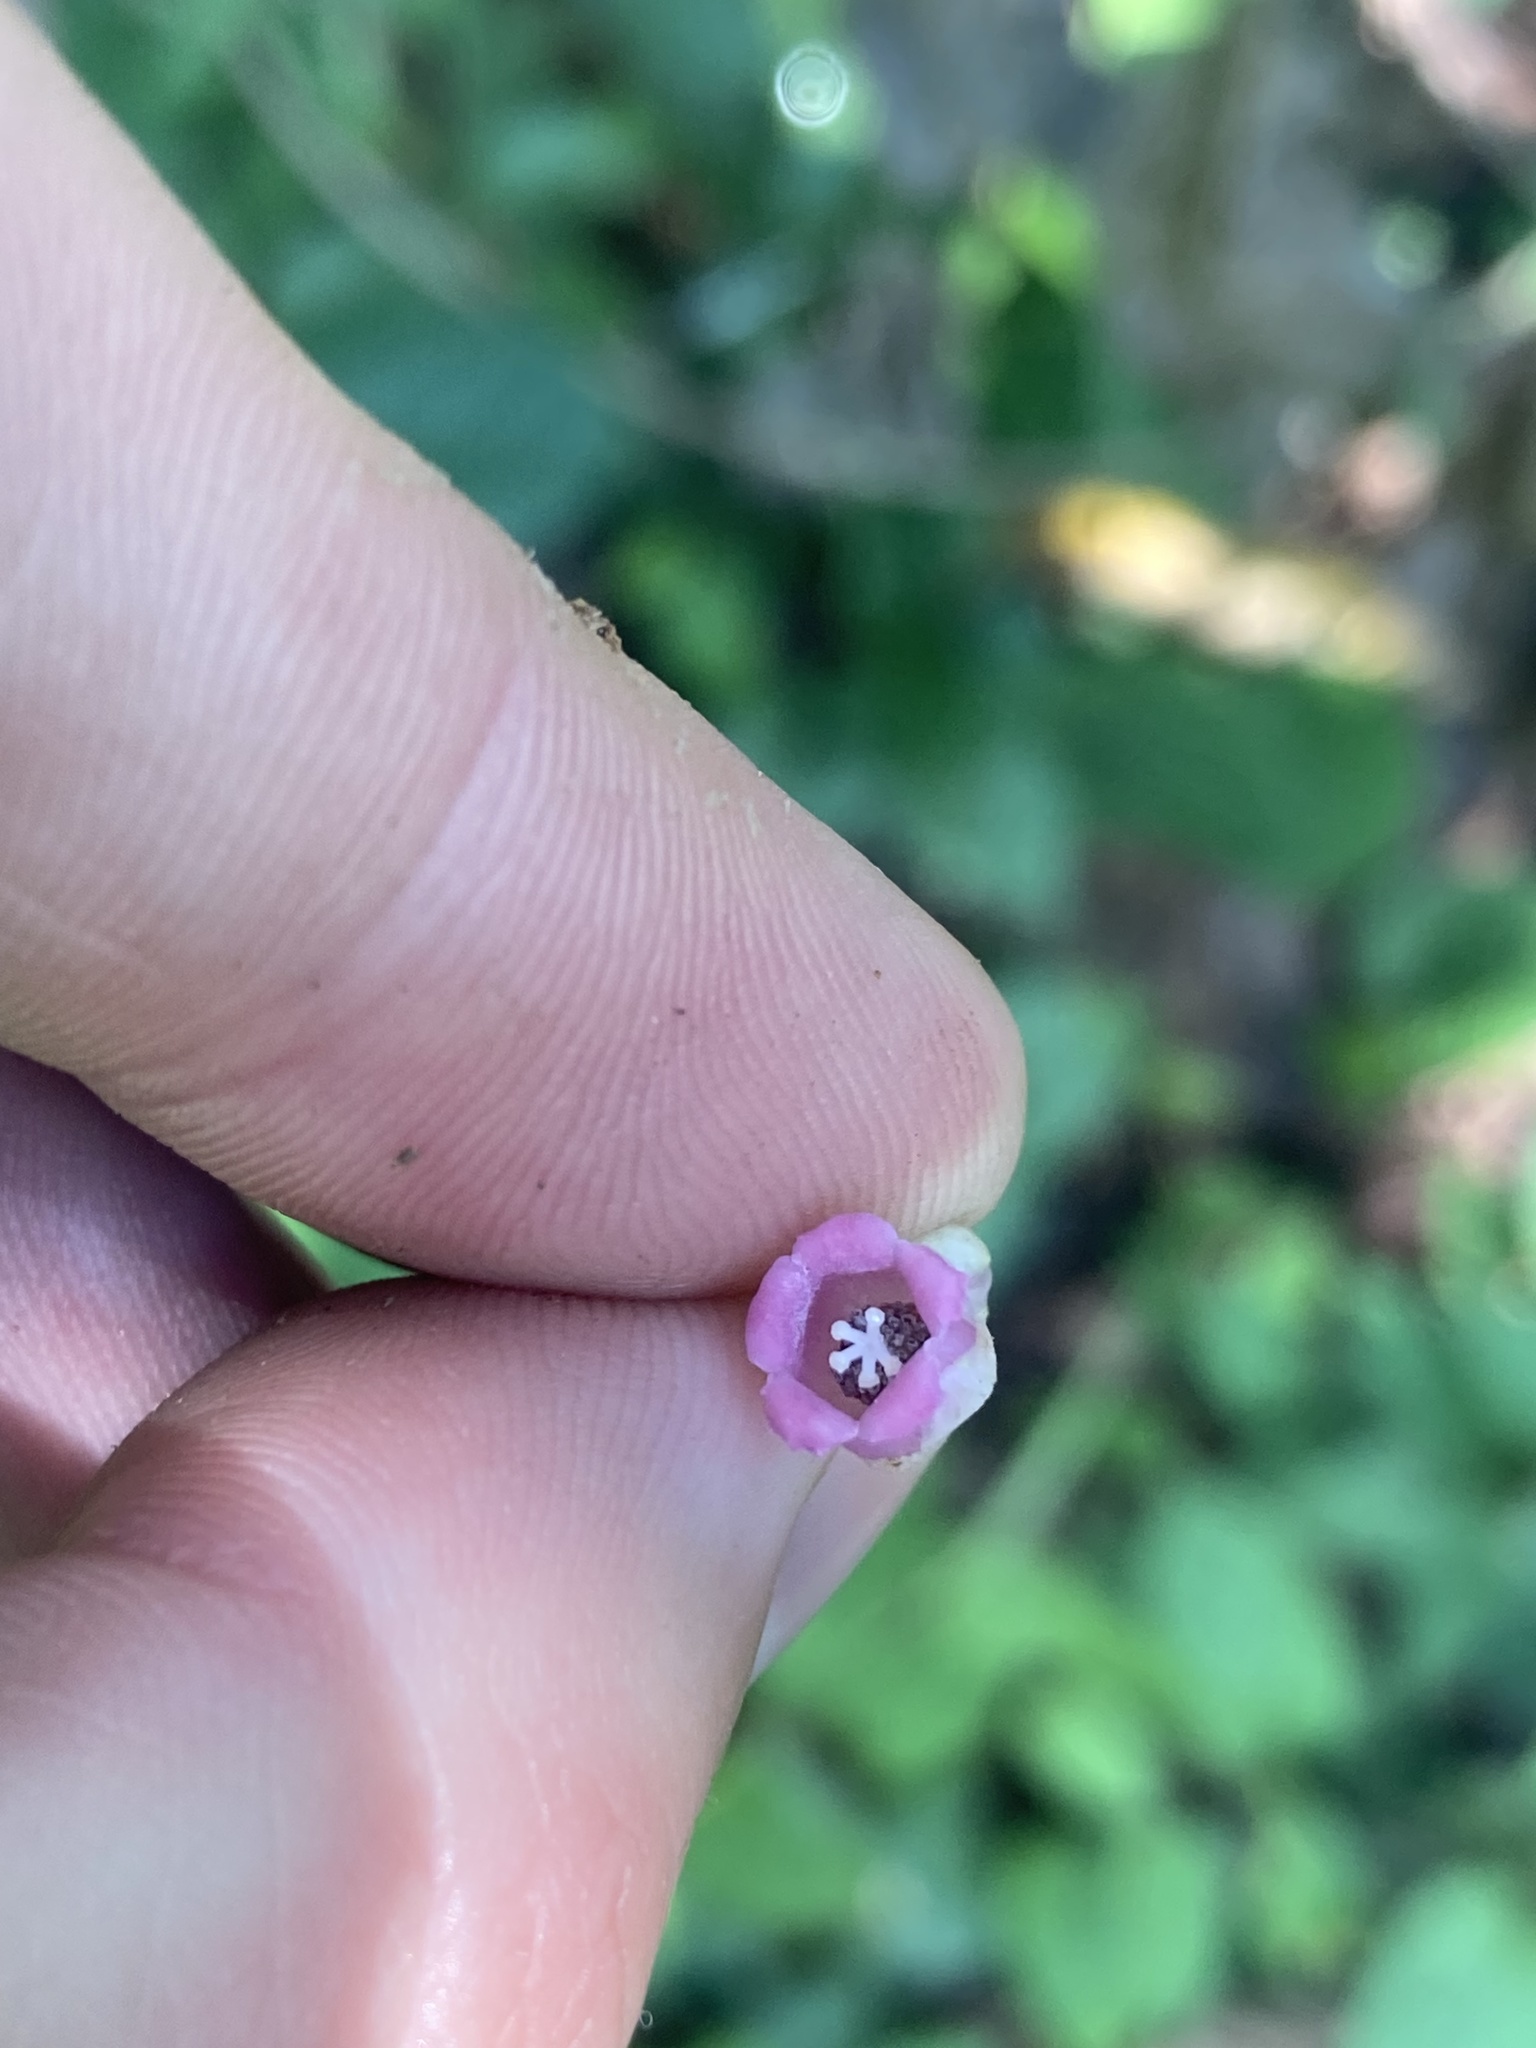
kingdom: Plantae
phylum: Tracheophyta
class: Magnoliopsida
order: Ericales
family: Actinidiaceae
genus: Saurauia
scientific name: Saurauia roxburghii
